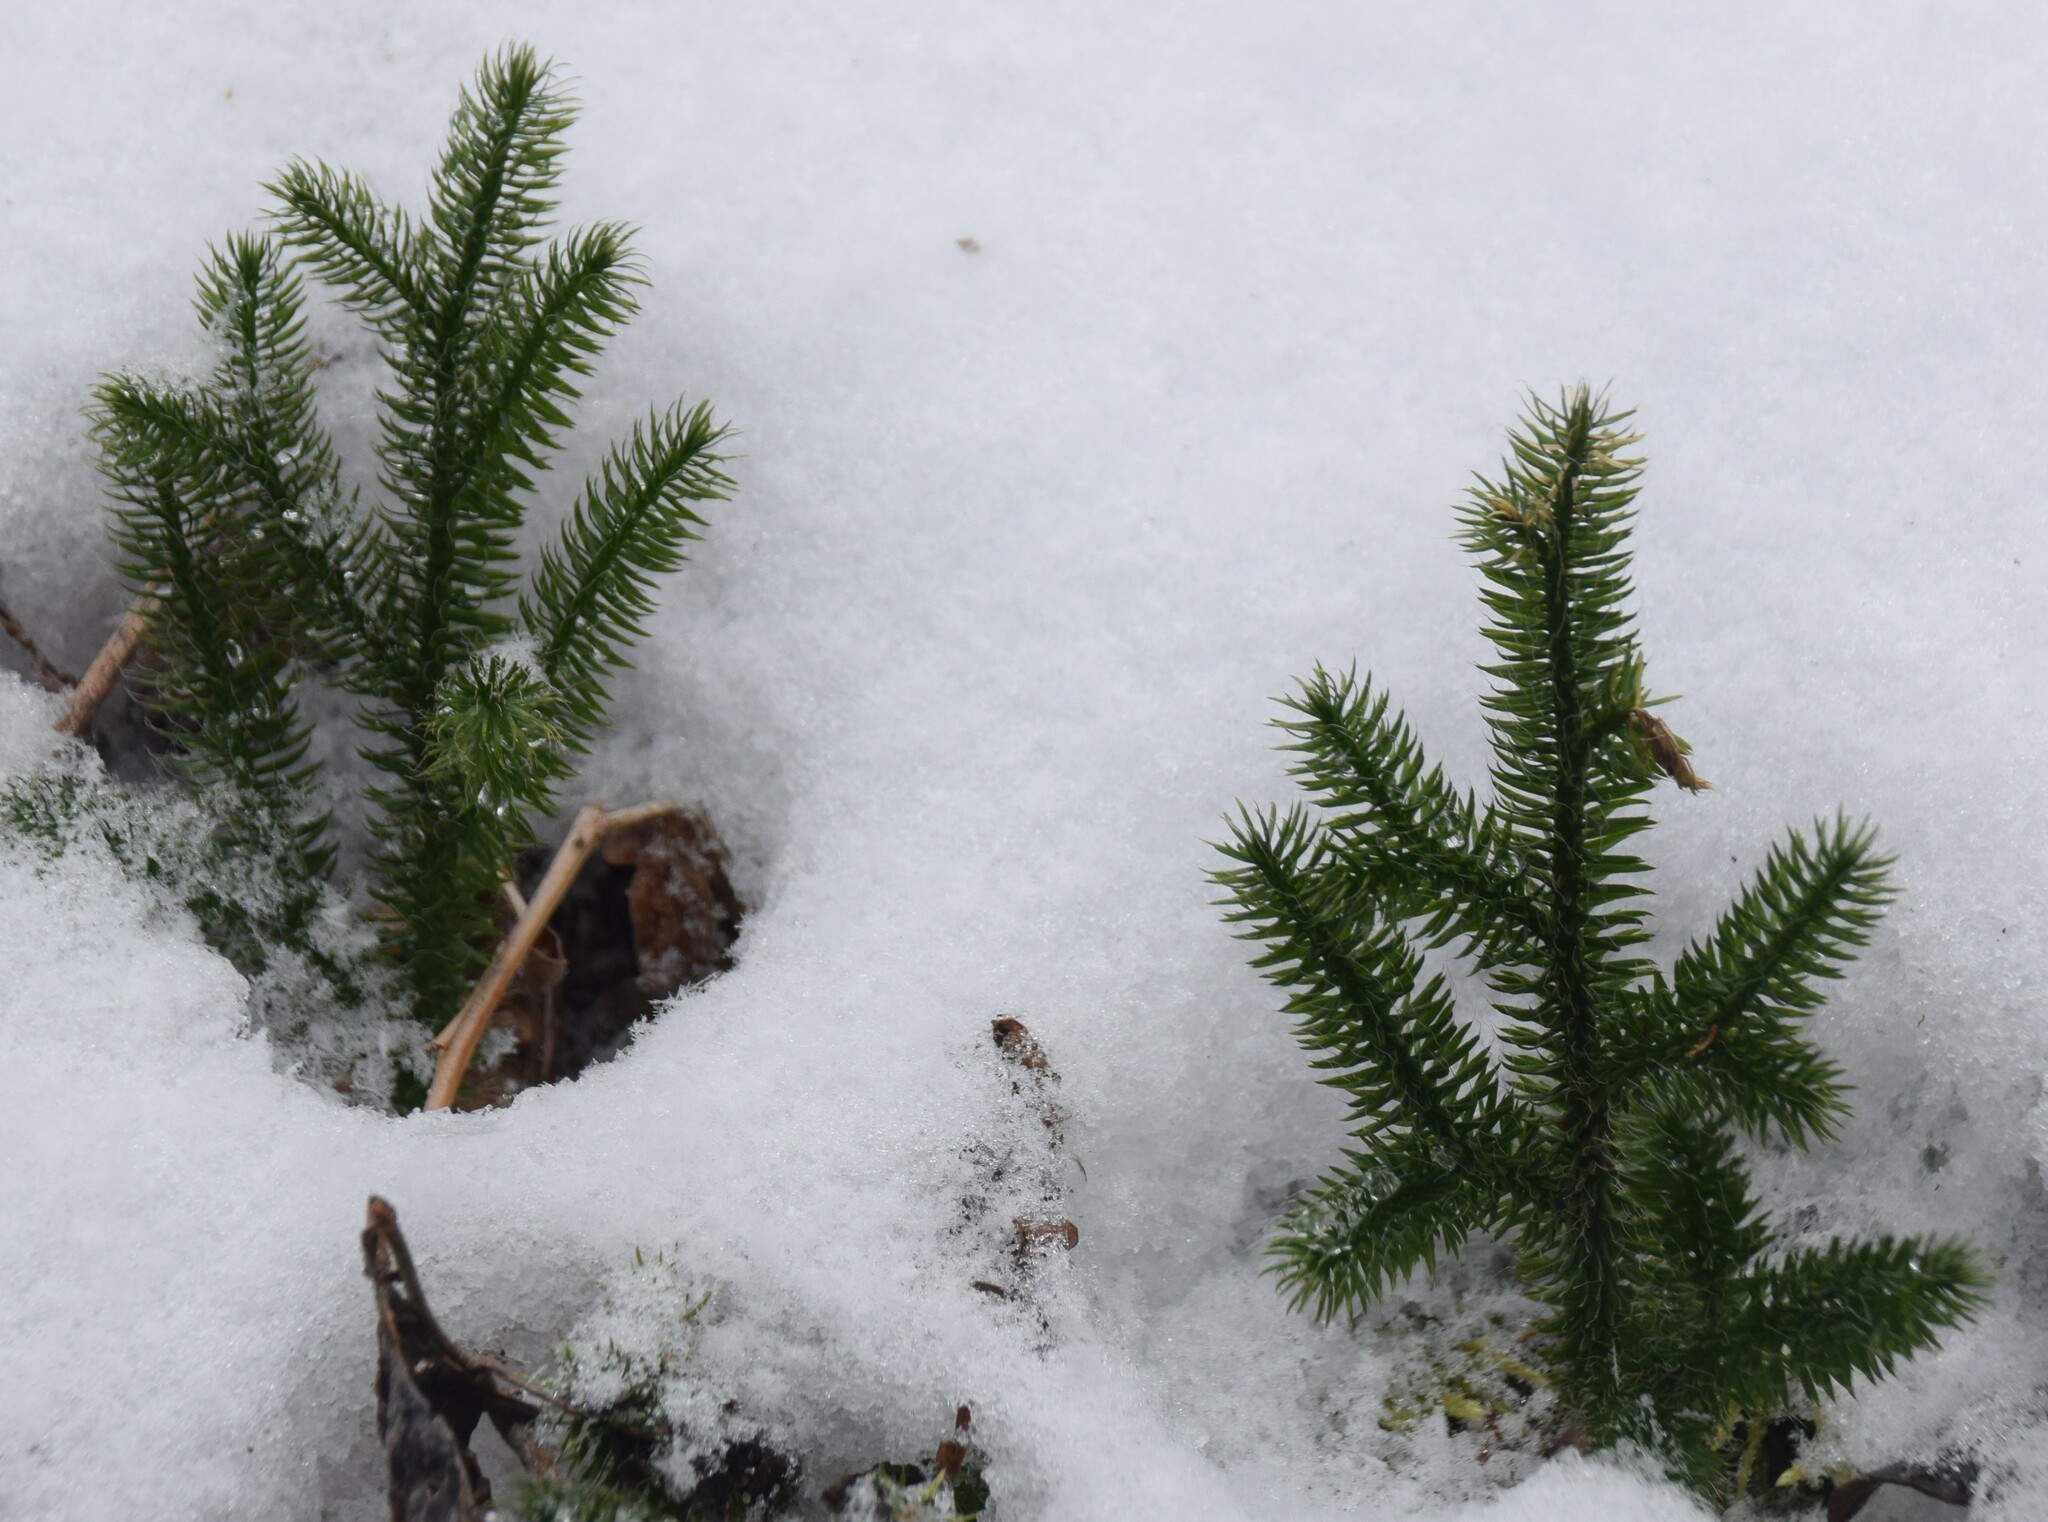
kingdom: Plantae
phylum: Tracheophyta
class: Lycopodiopsida
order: Lycopodiales
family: Lycopodiaceae
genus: Lycopodium
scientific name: Lycopodium clavatum
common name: Stag's-horn clubmoss
